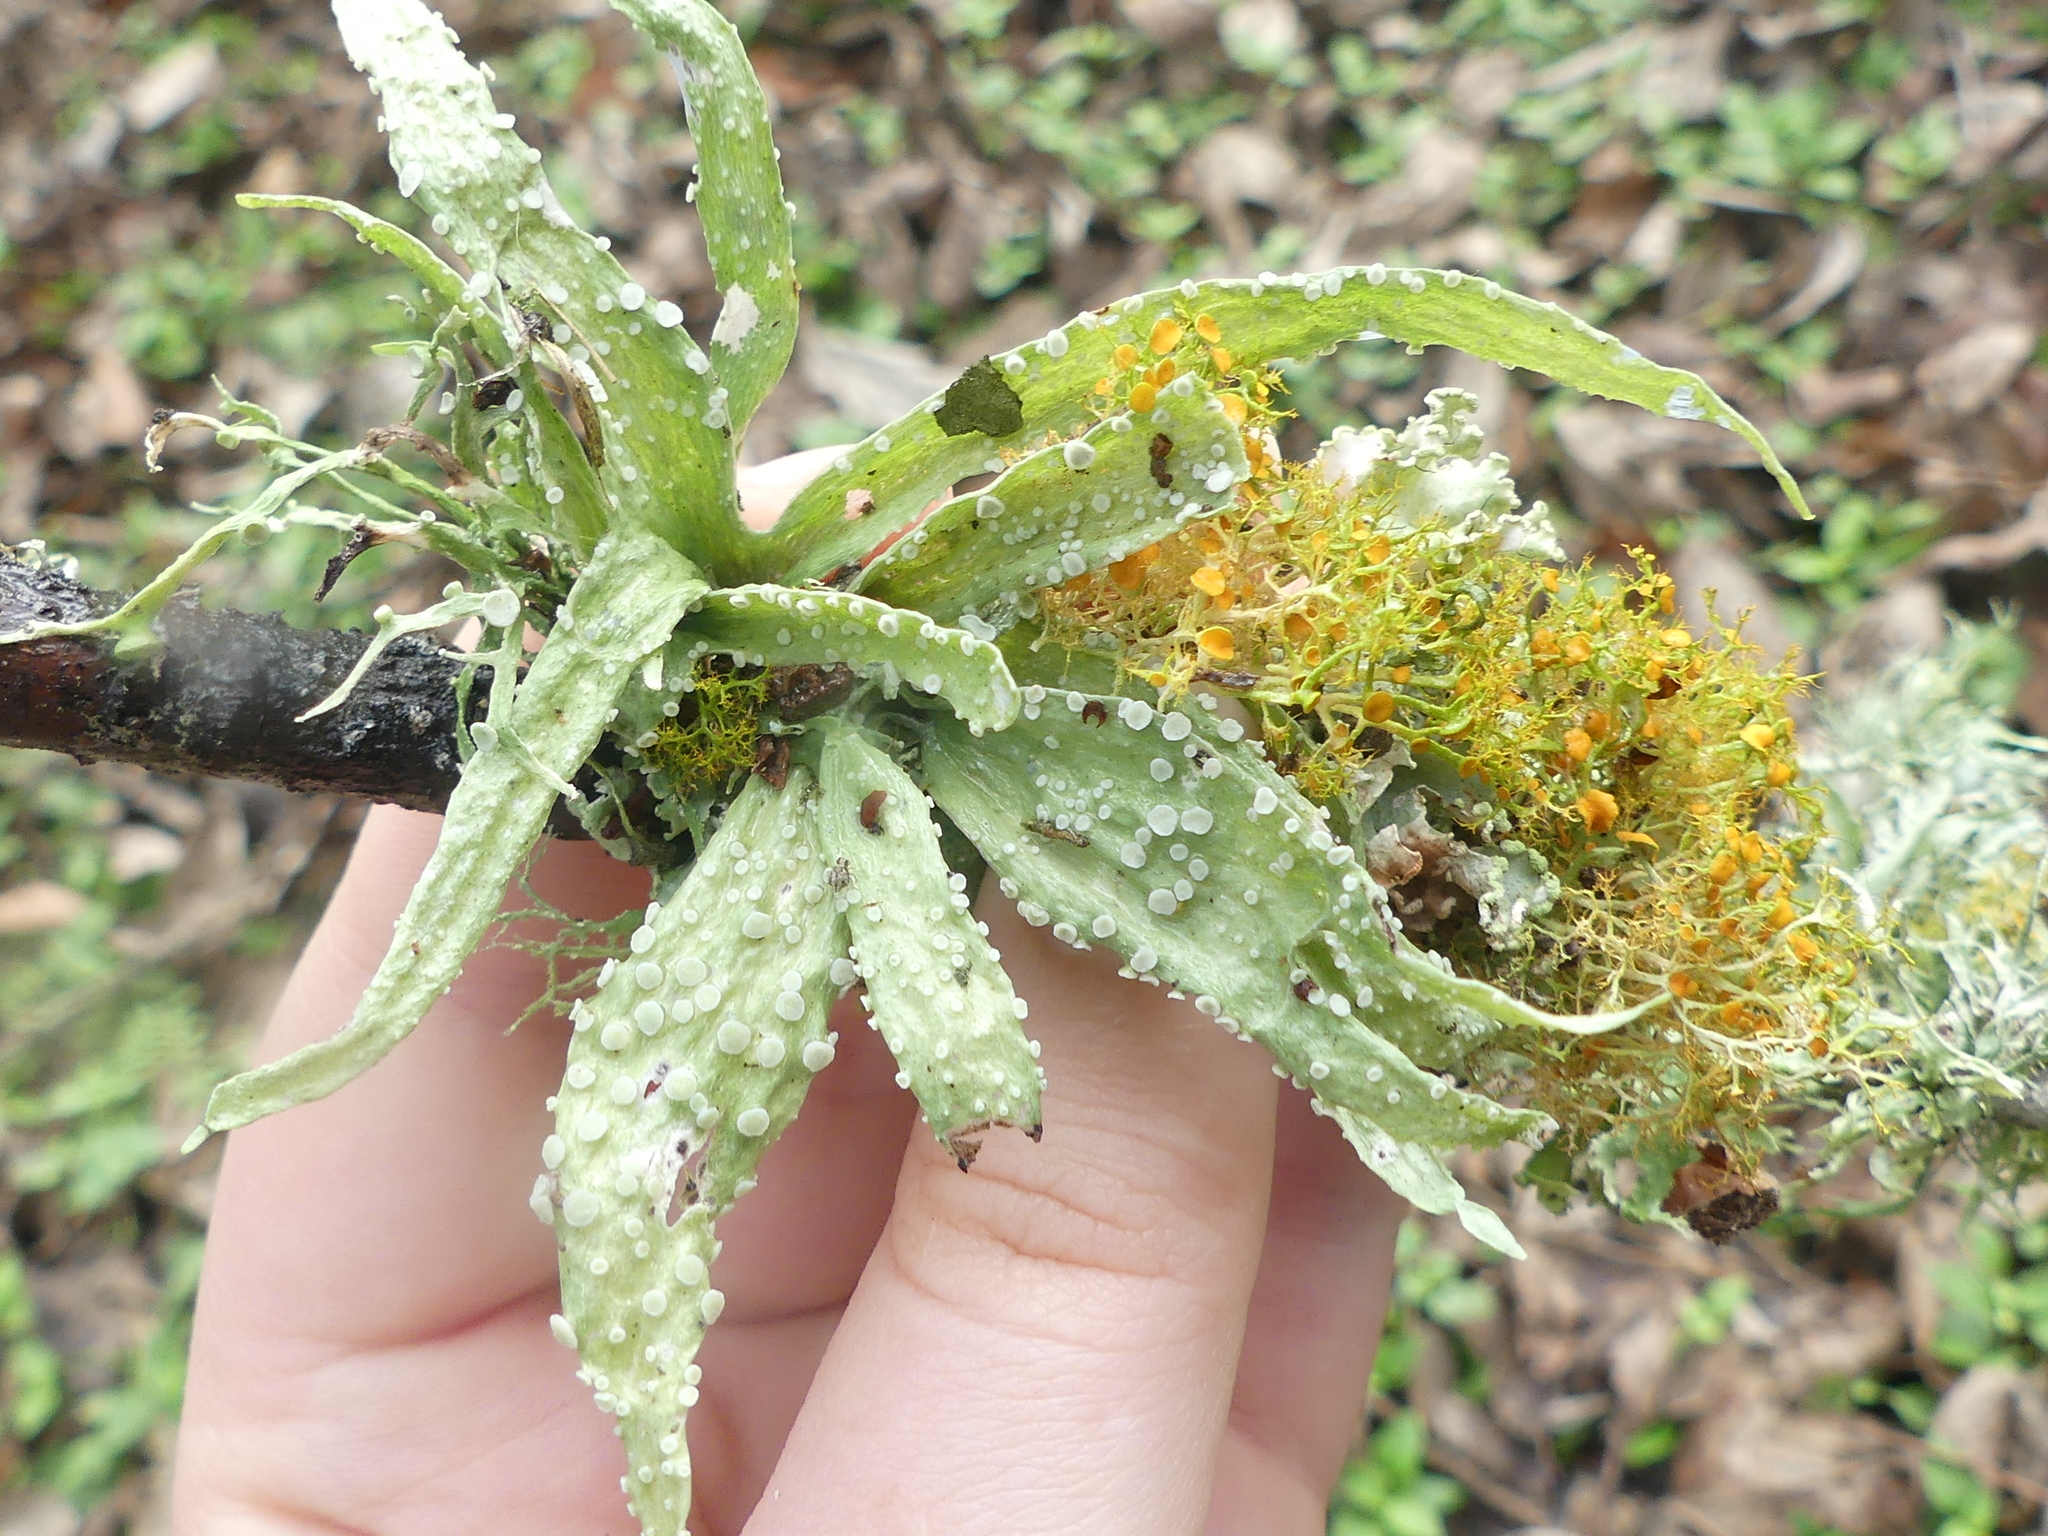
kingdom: Fungi
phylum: Ascomycota
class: Lecanoromycetes
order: Lecanorales
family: Ramalinaceae
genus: Ramalina
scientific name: Ramalina celastri
